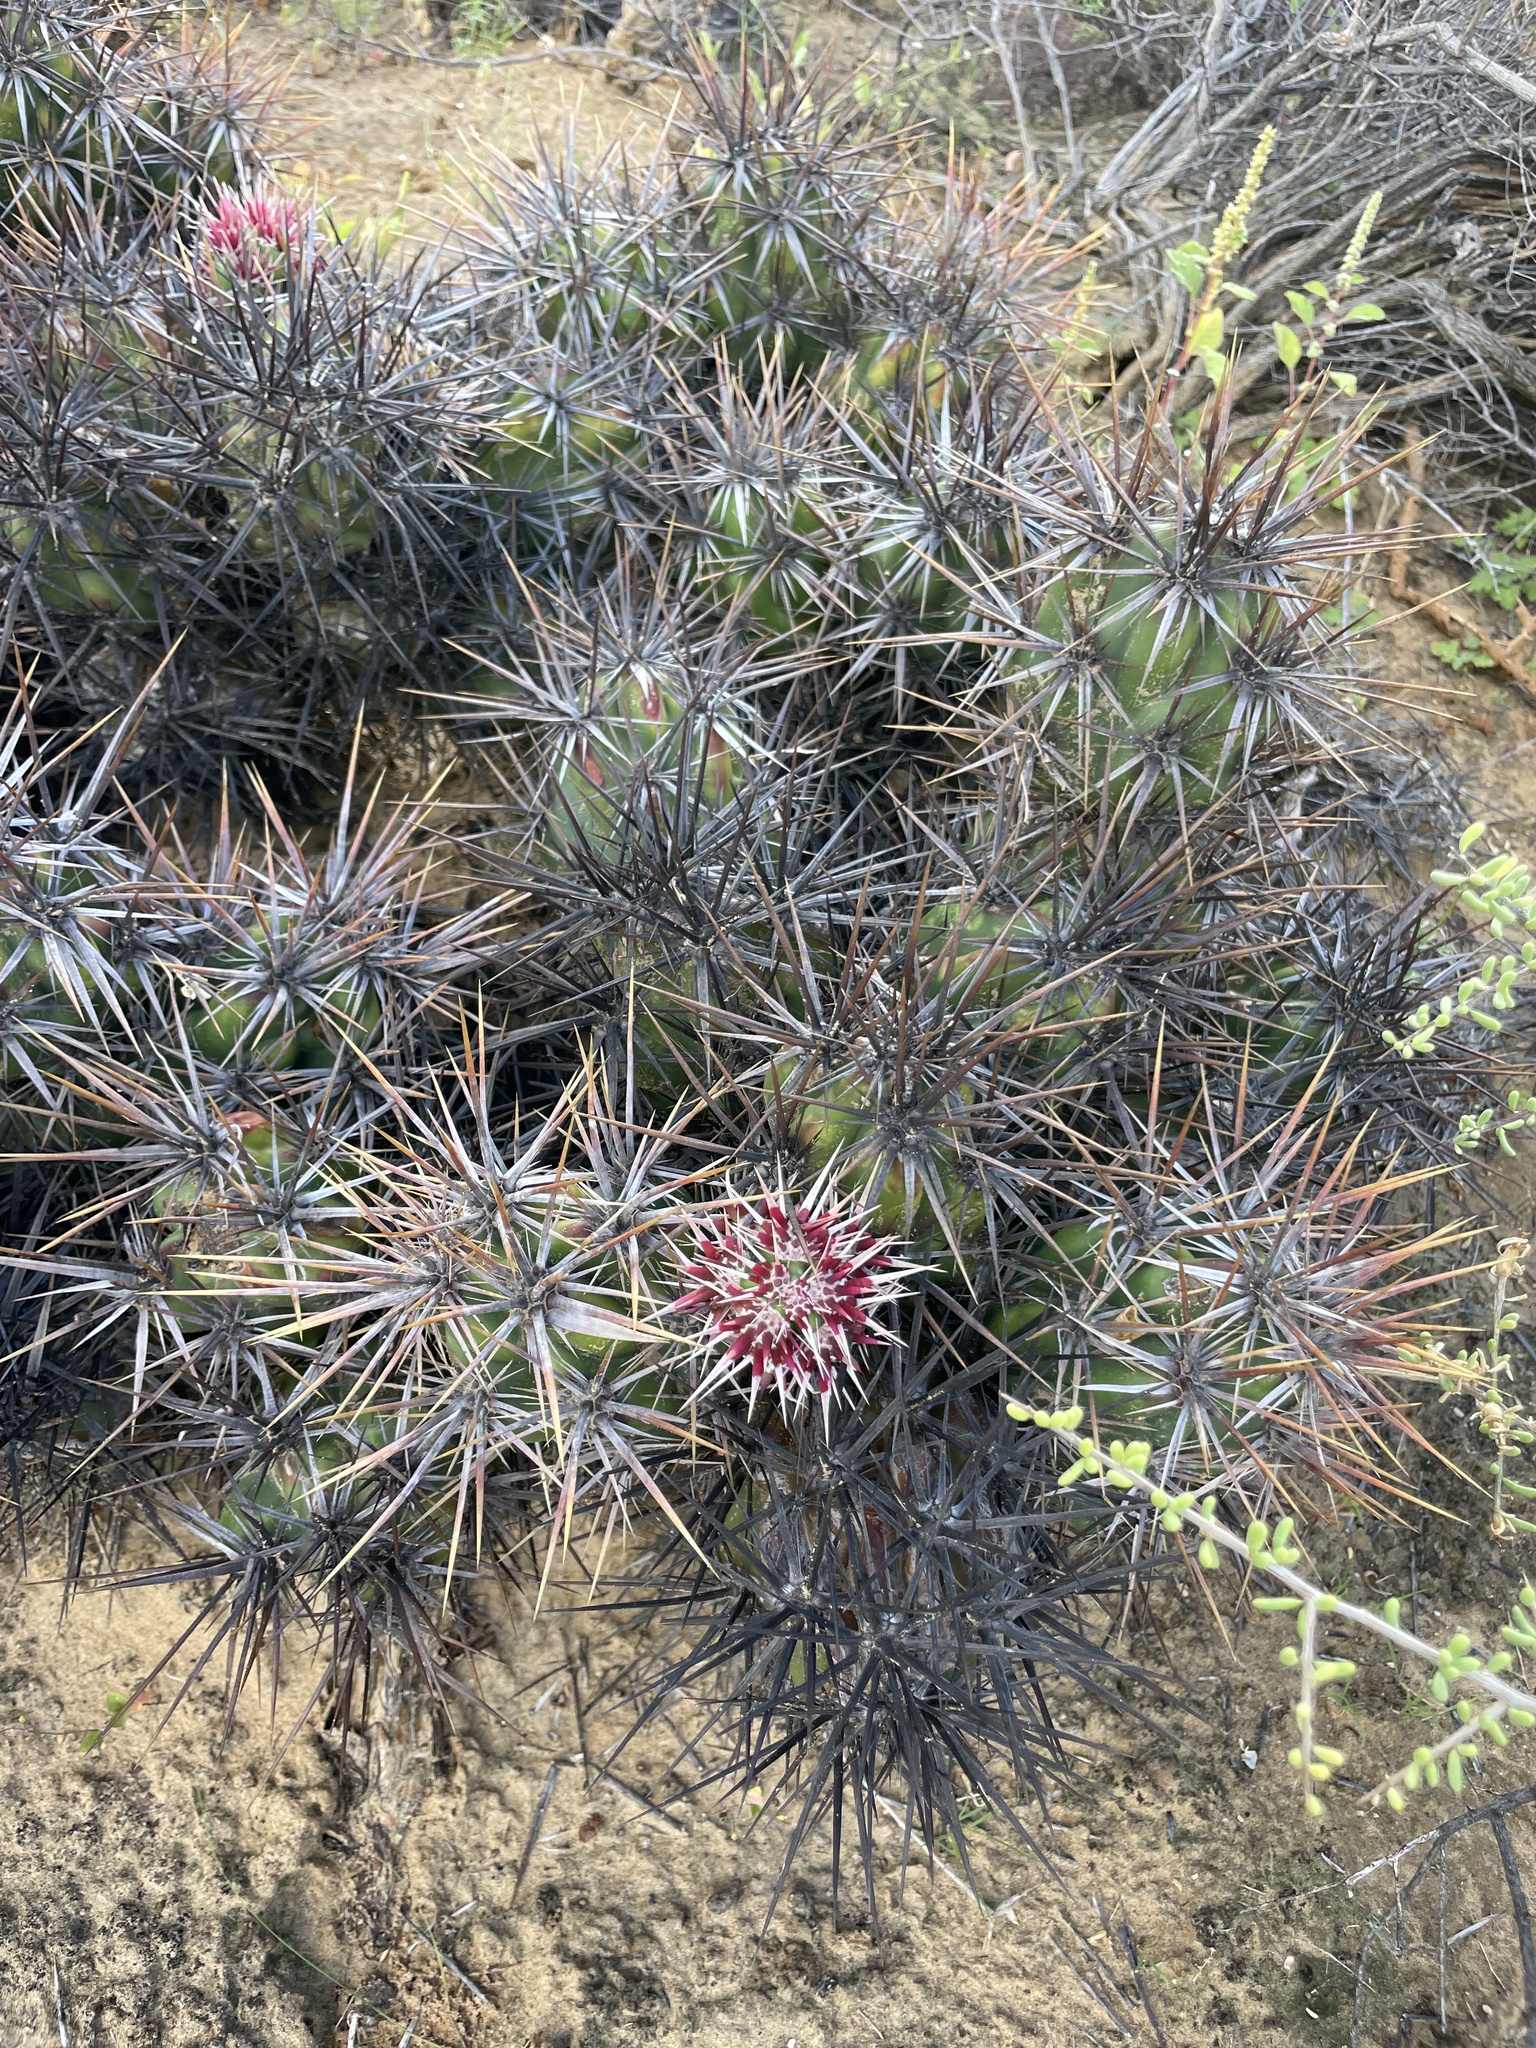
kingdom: Plantae
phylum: Tracheophyta
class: Magnoliopsida
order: Caryophyllales
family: Cactaceae
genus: Grusonia
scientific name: Grusonia invicta
